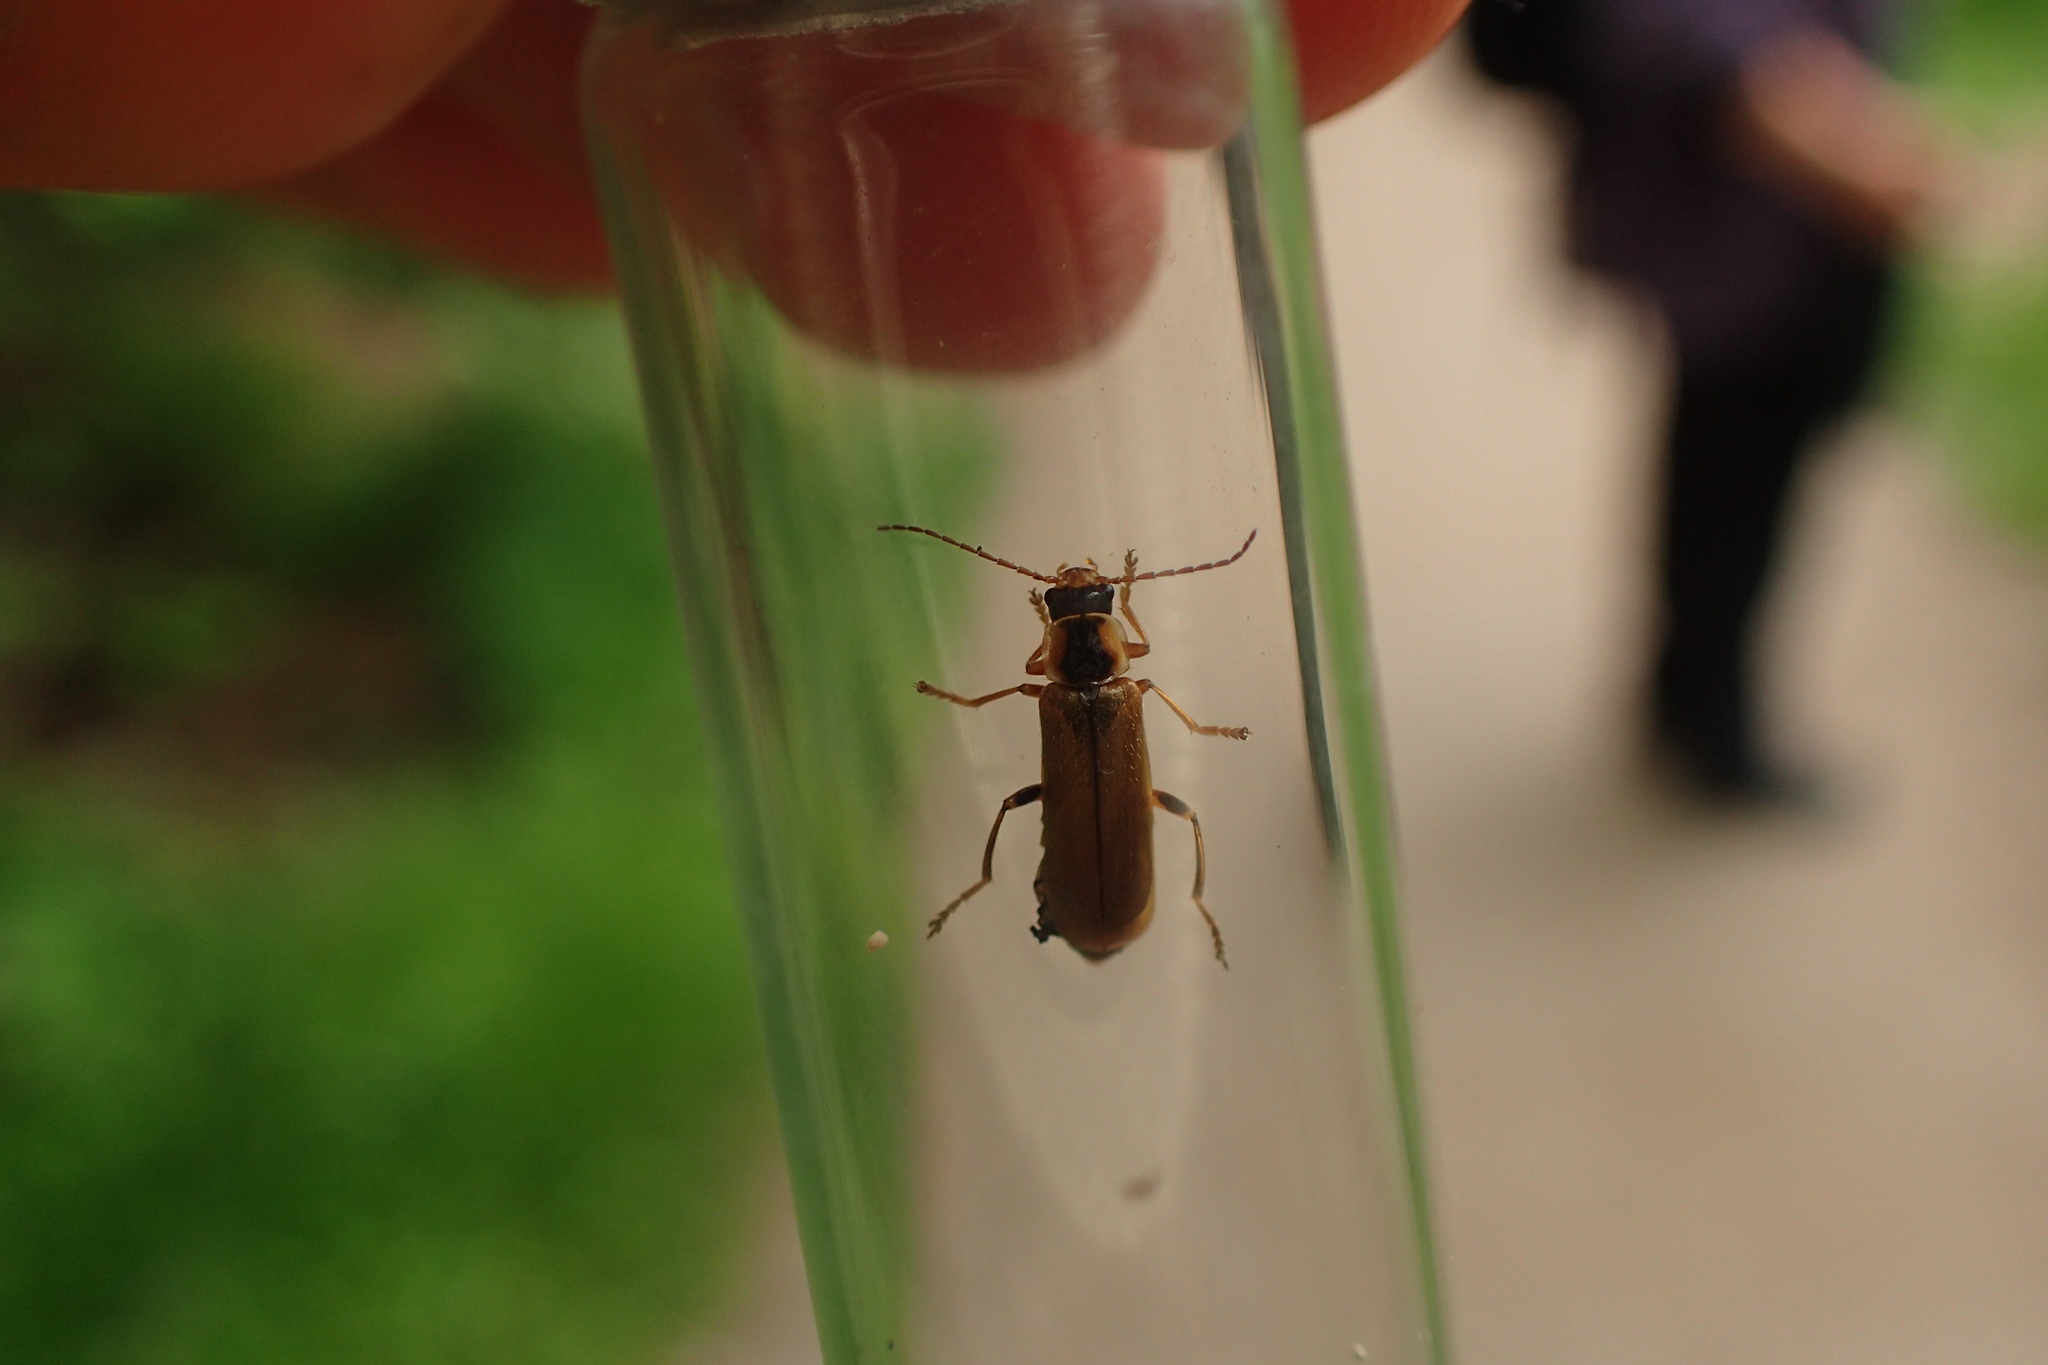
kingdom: Animalia
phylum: Arthropoda
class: Insecta
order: Coleoptera
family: Cantharidae
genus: Cantharis
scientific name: Cantharis decipiens
